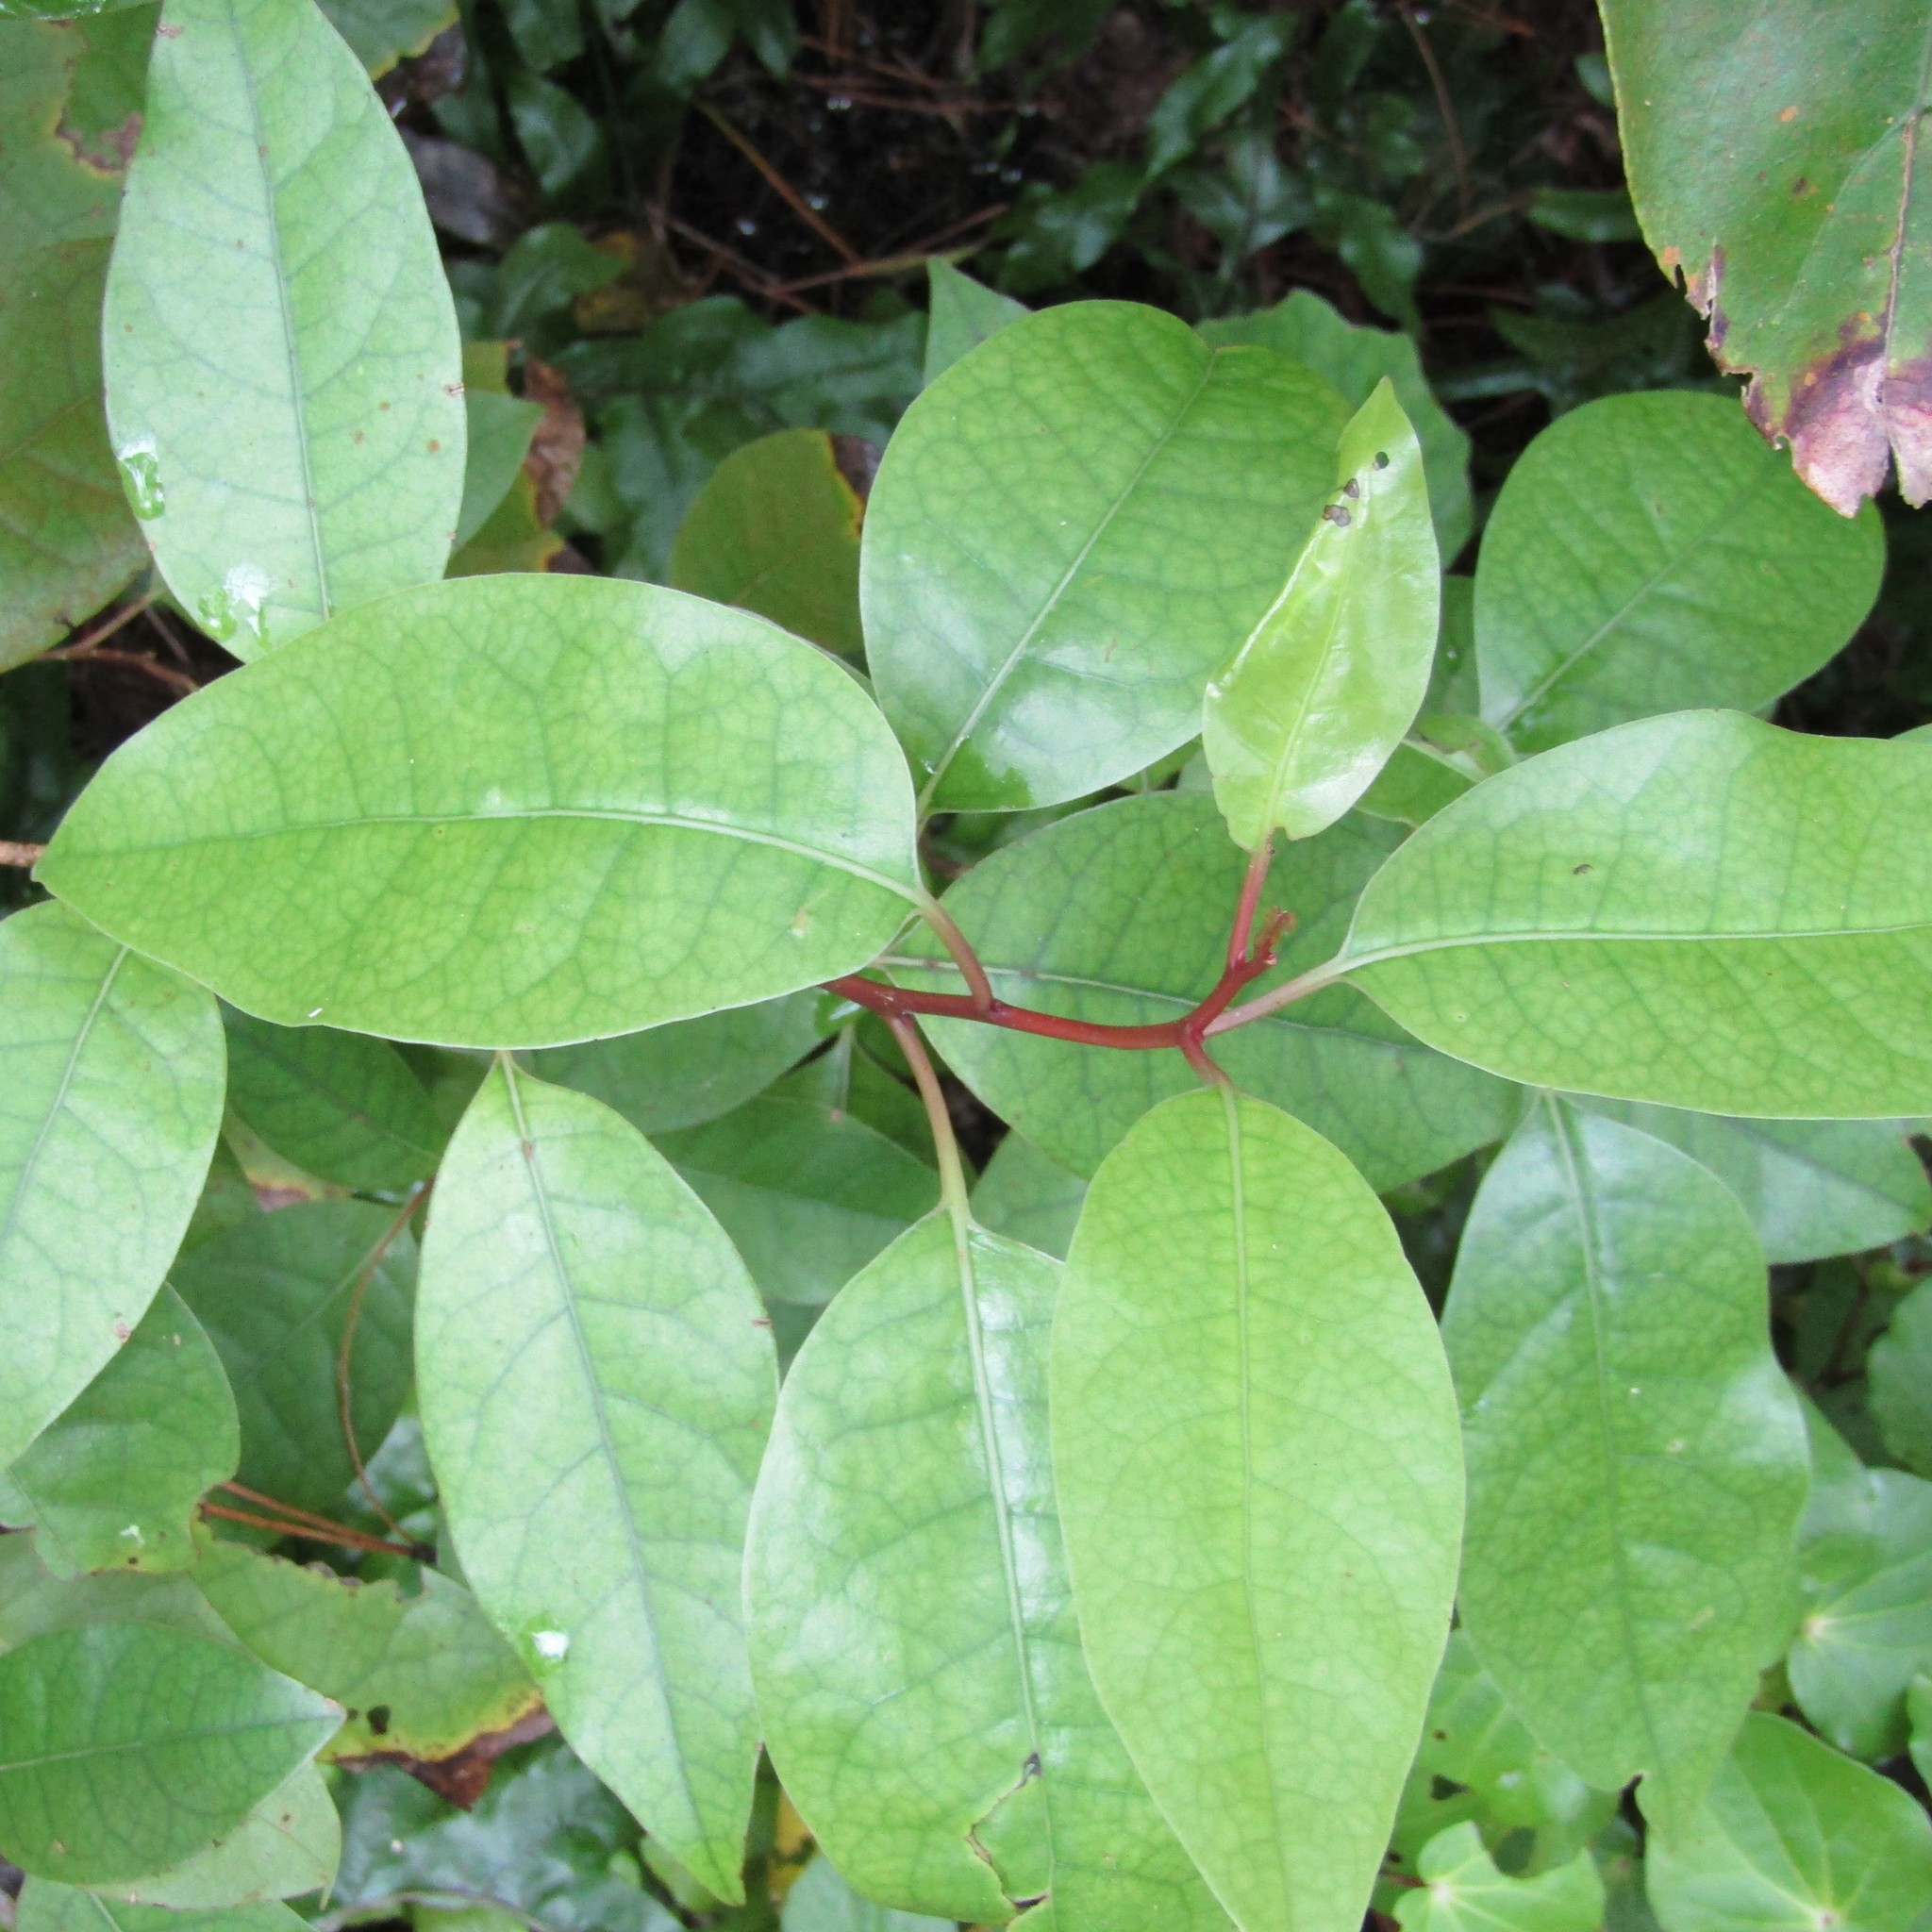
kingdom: Plantae
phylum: Tracheophyta
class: Magnoliopsida
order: Laurales
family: Lauraceae
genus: Litsea
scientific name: Litsea calicaris
